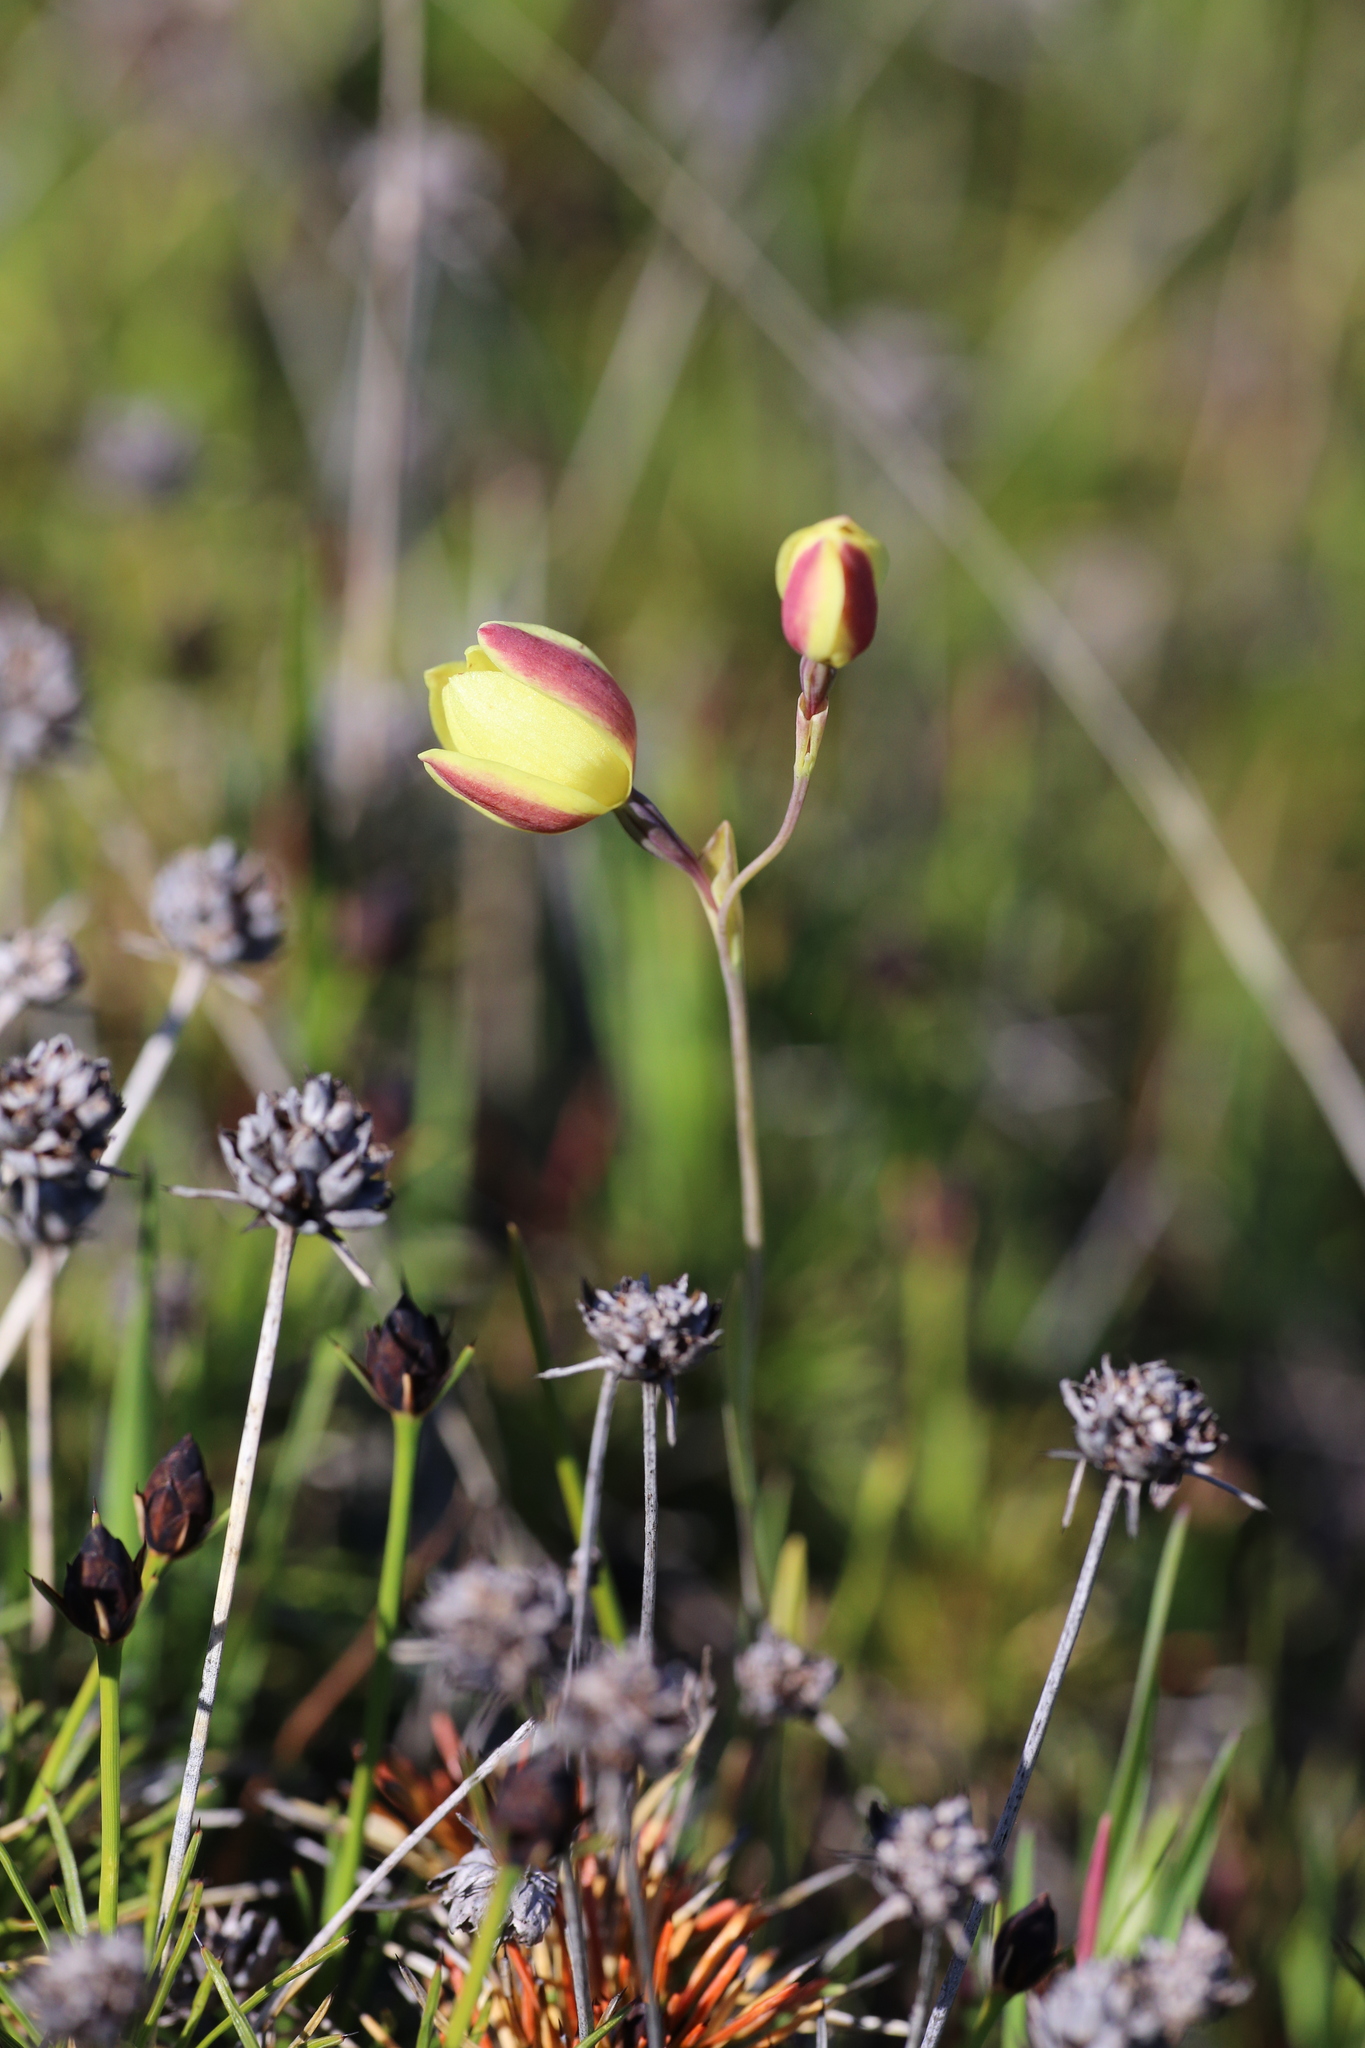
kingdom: Plantae
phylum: Tracheophyta
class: Liliopsida
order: Asparagales
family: Orchidaceae
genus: Thelymitra
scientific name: Thelymitra antennifera
